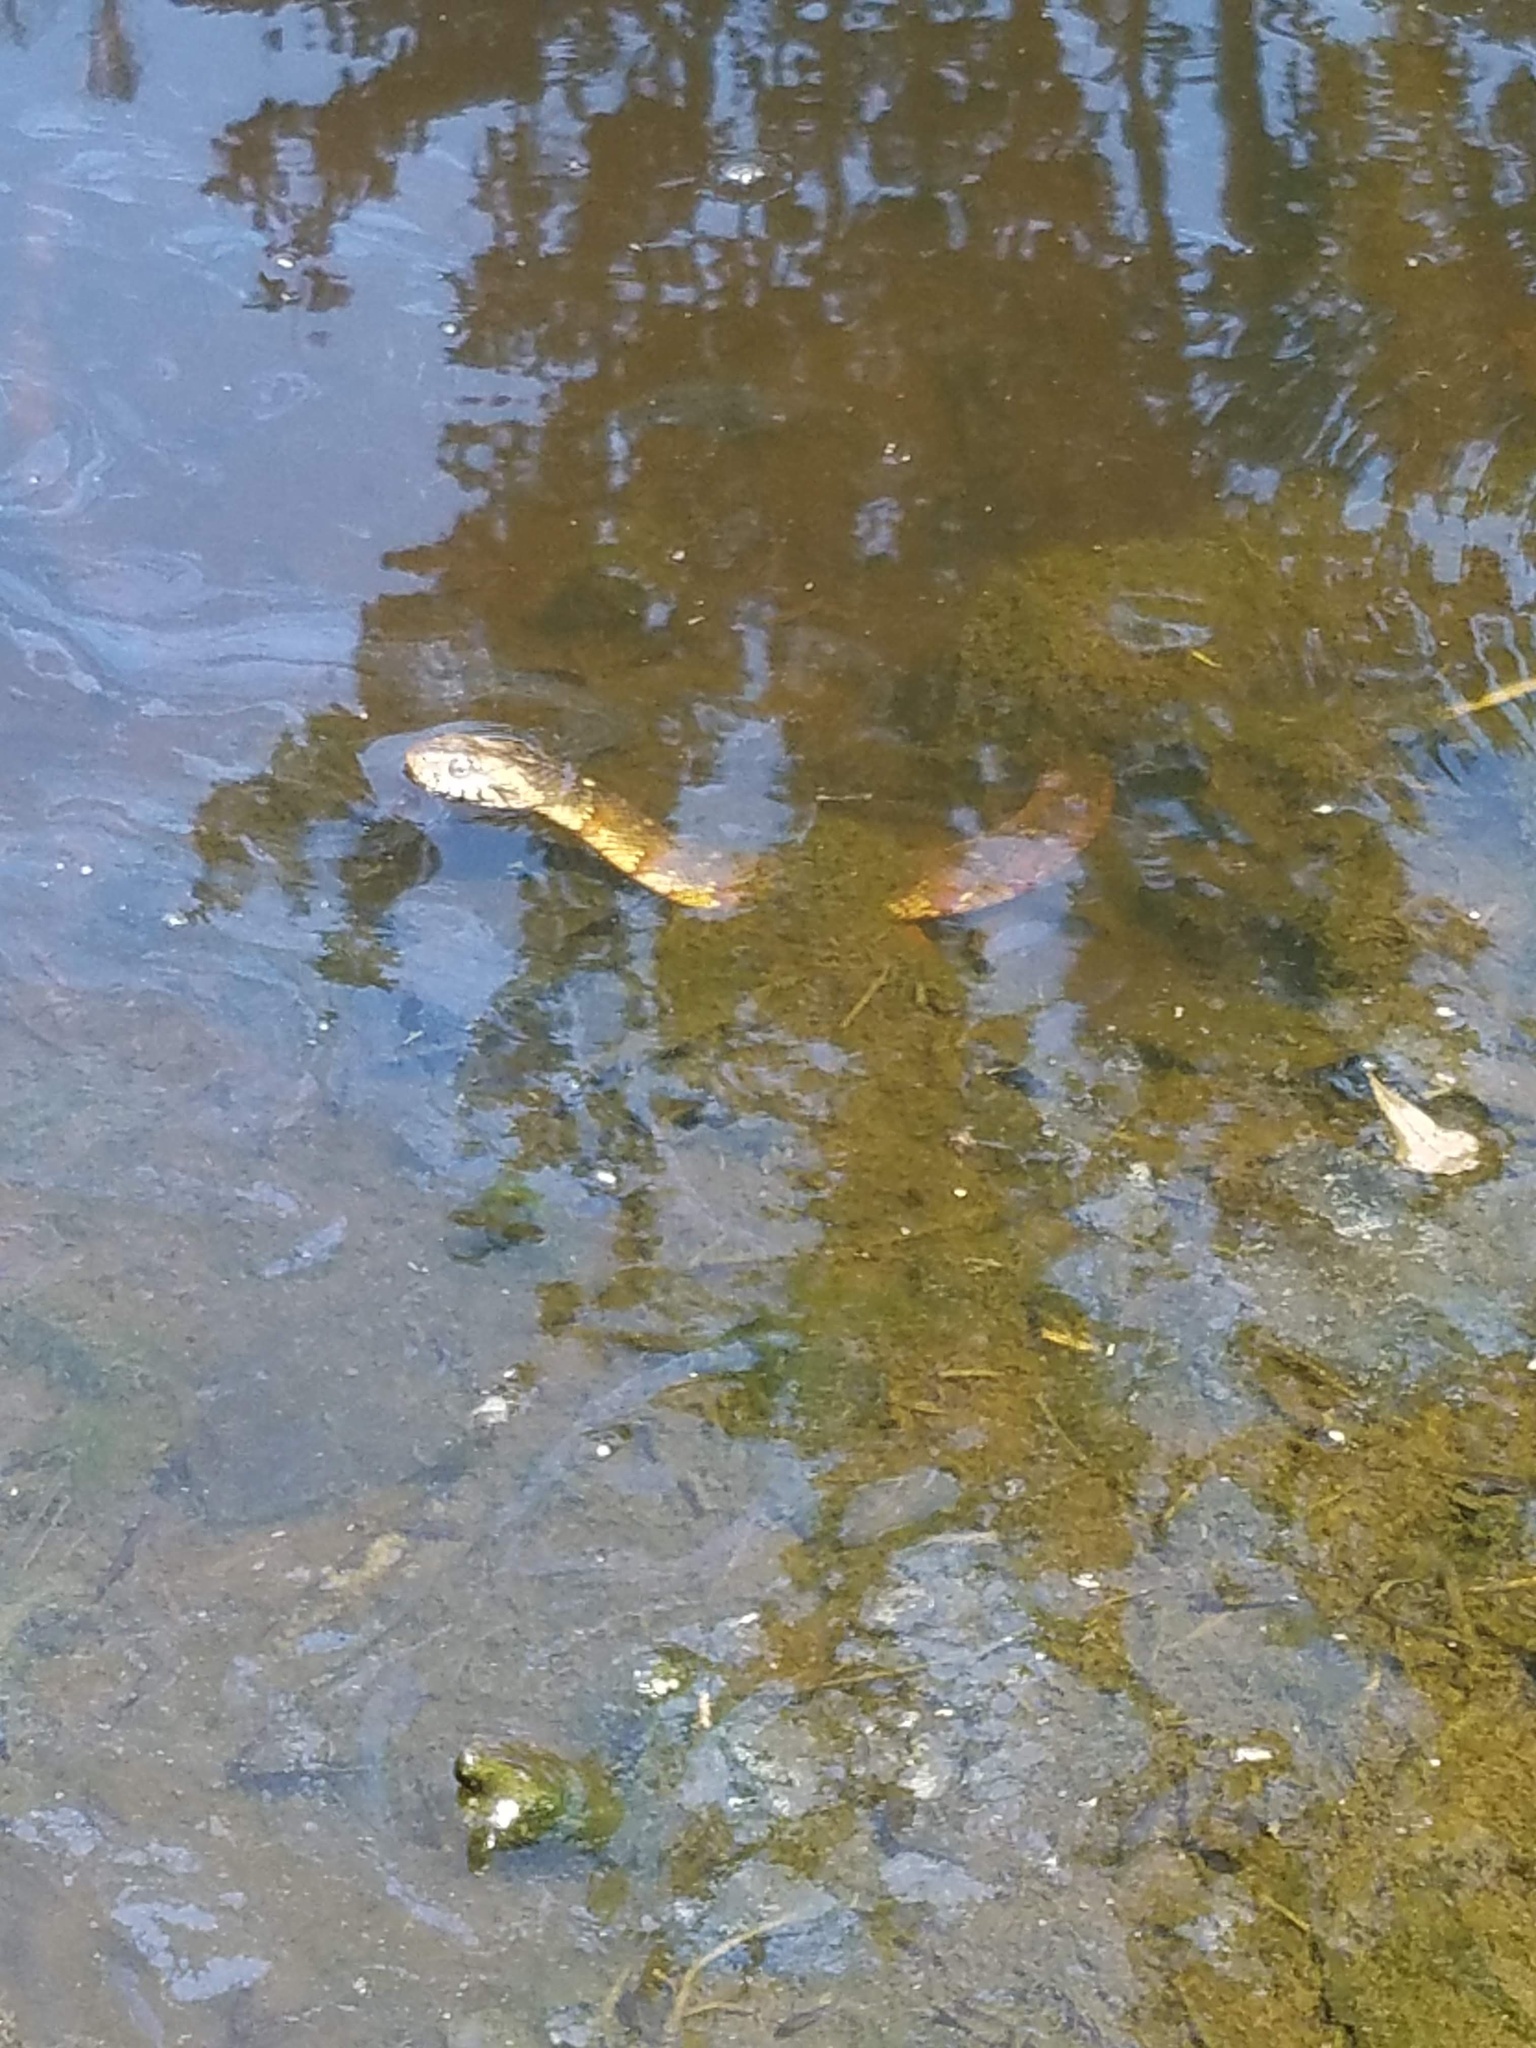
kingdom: Animalia
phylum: Chordata
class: Squamata
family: Colubridae
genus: Nerodia
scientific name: Nerodia fasciata
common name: Southern water snake
